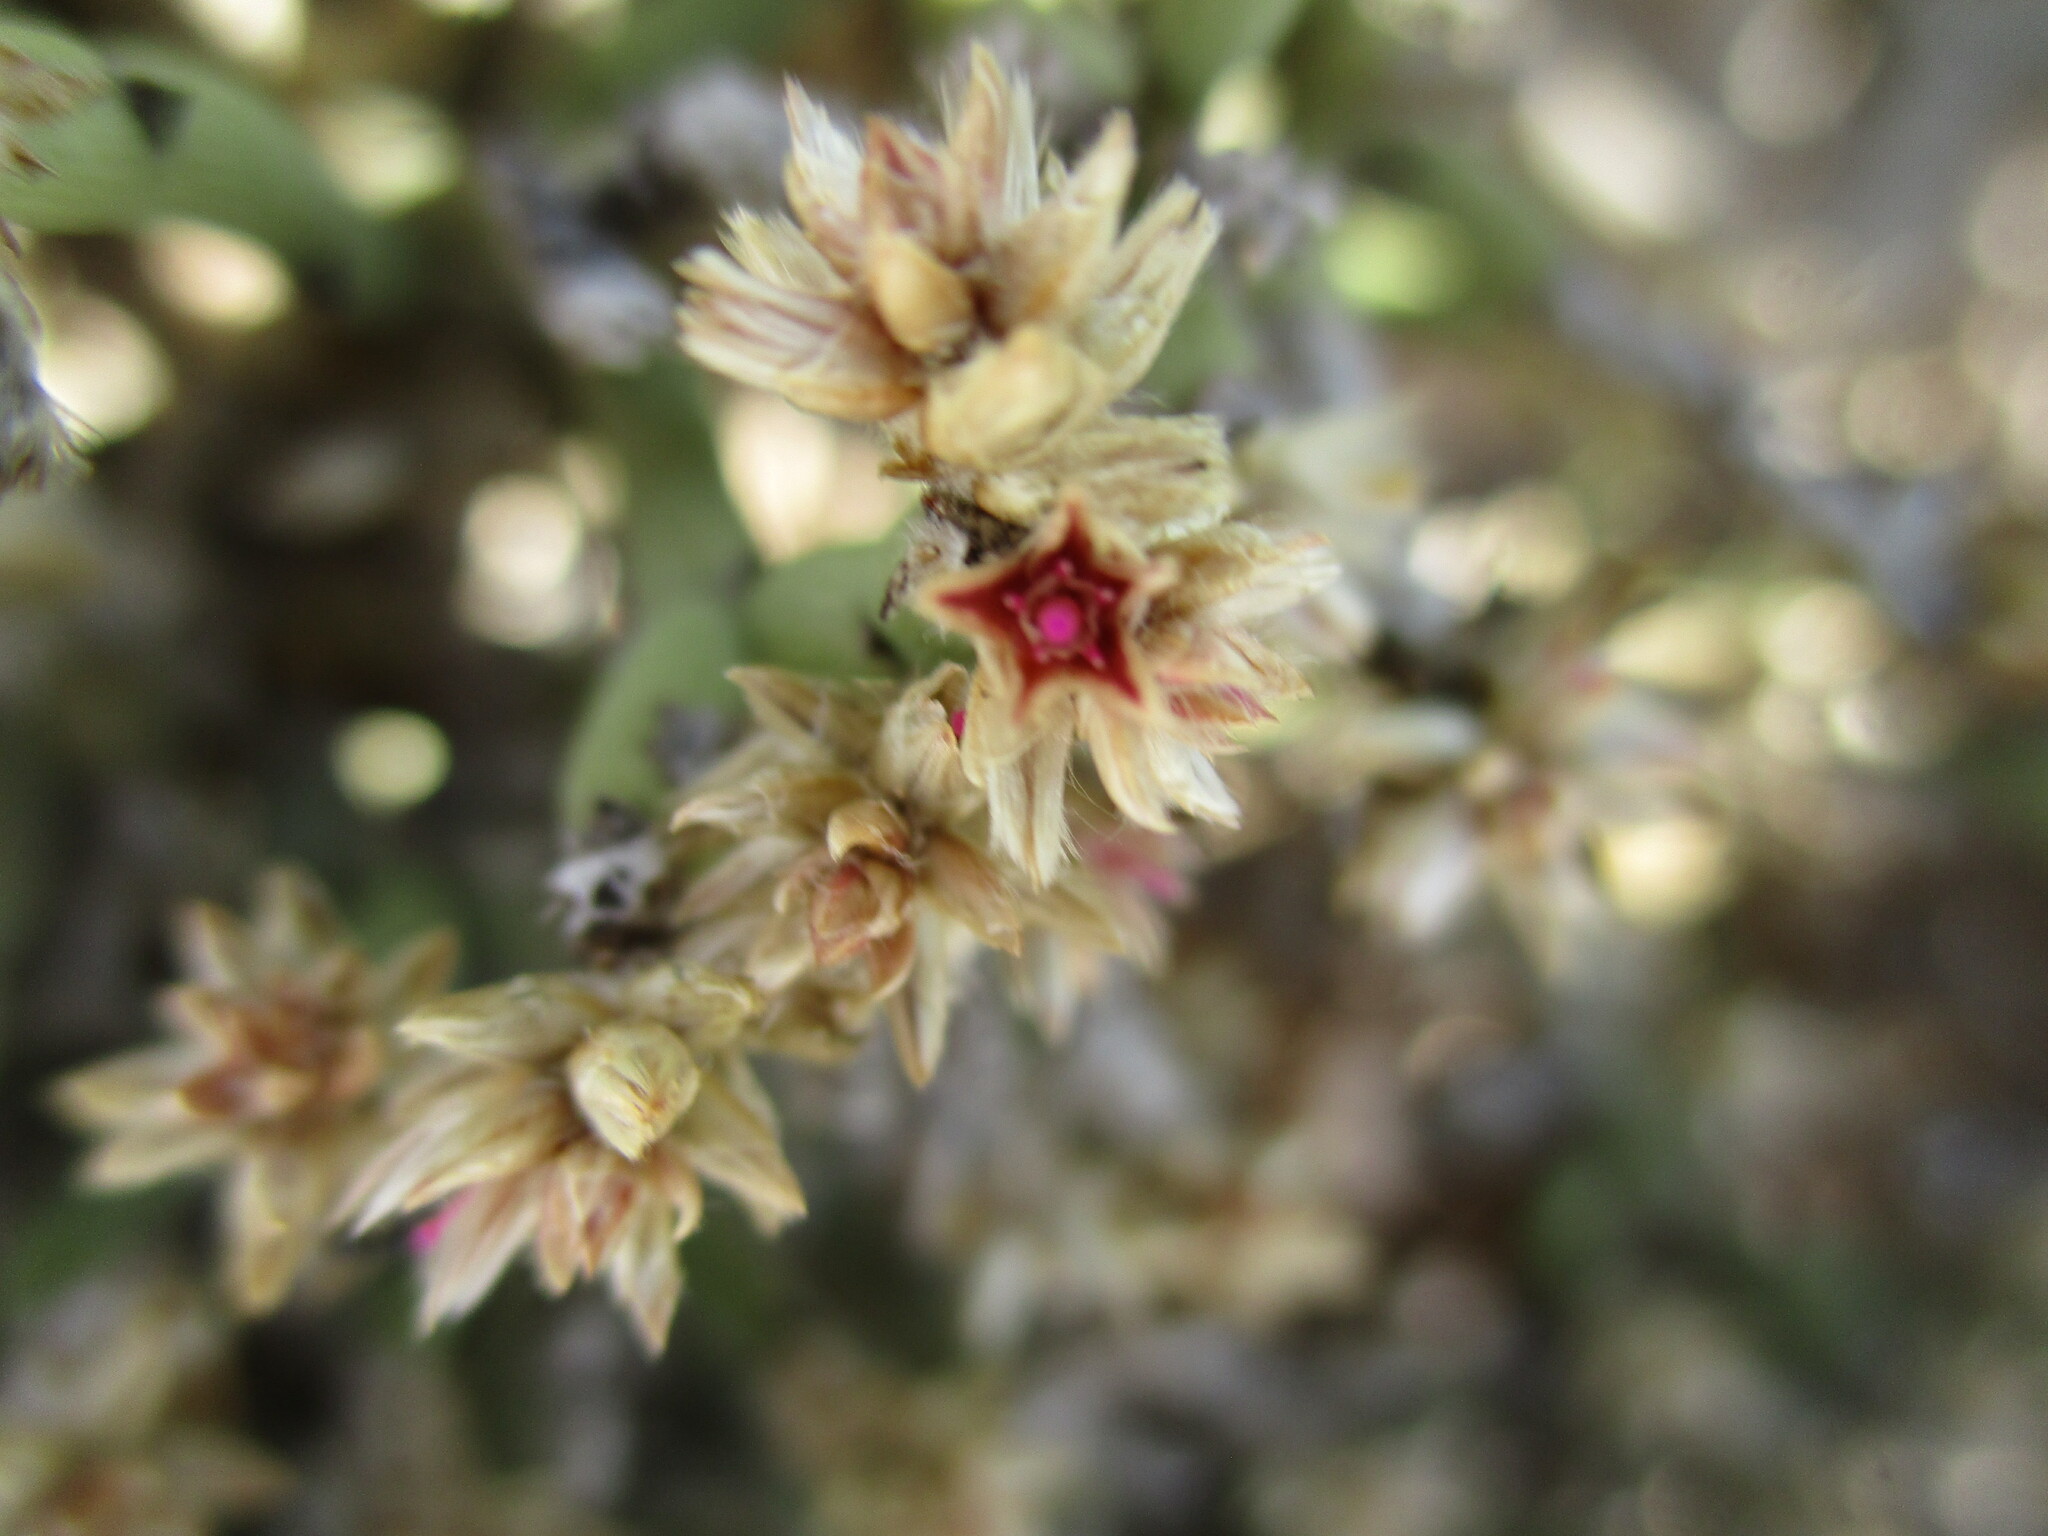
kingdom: Plantae
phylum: Tracheophyta
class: Magnoliopsida
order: Caryophyllales
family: Amaranthaceae
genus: Arthraerva
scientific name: Arthraerva leubnitziae
